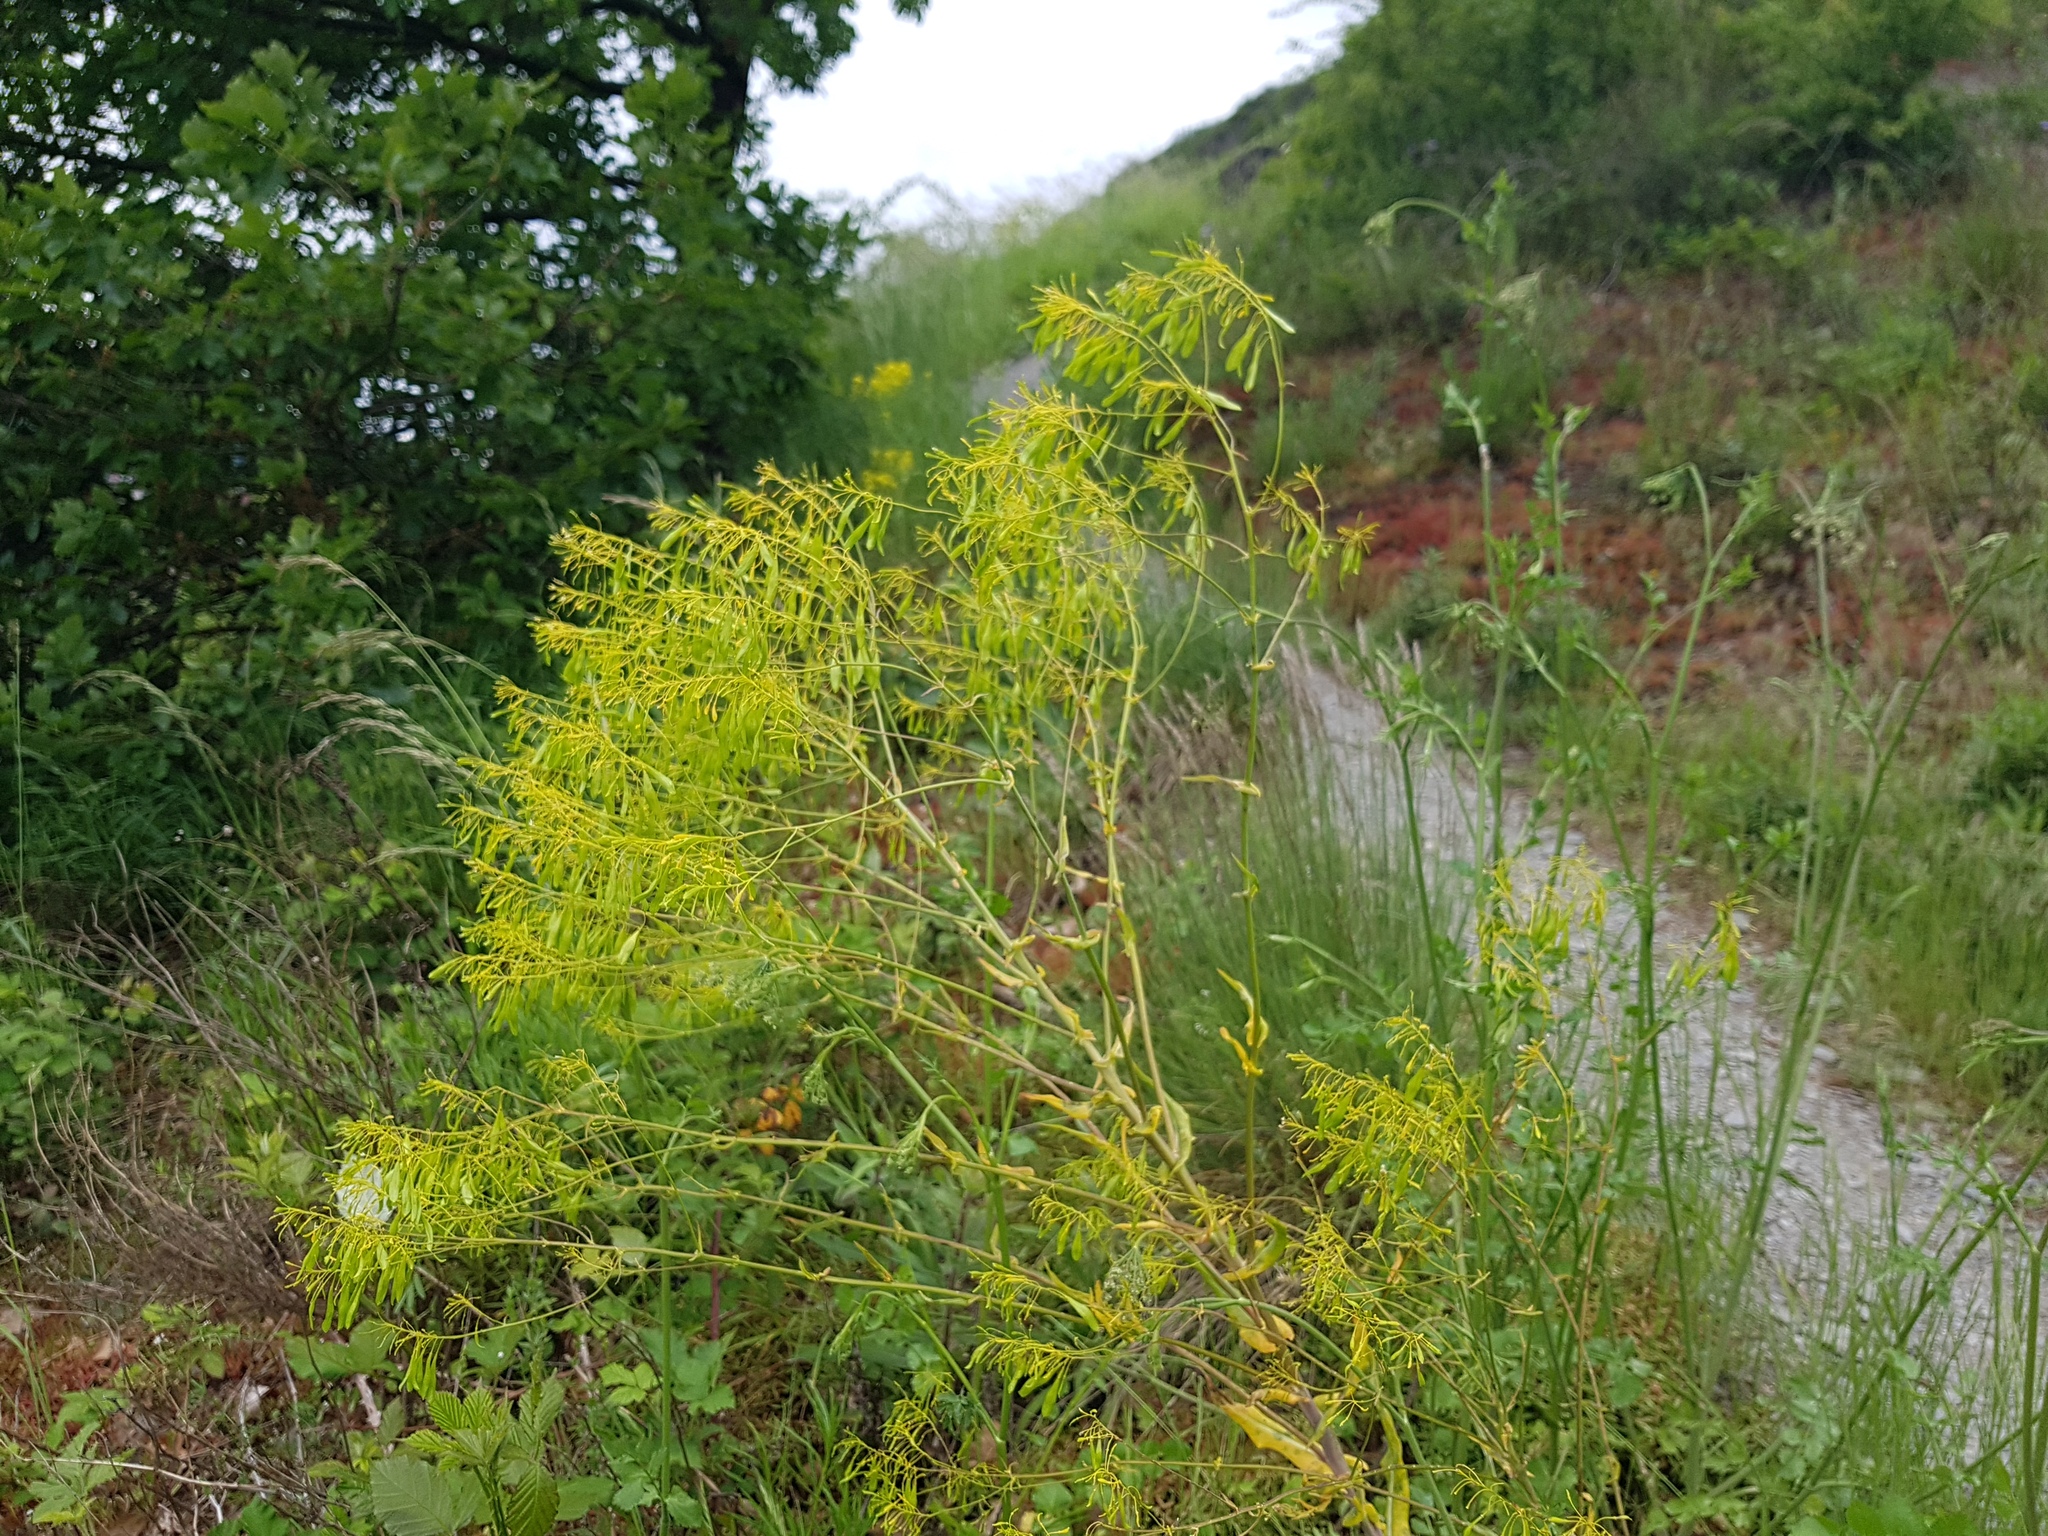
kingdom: Plantae
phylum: Tracheophyta
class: Magnoliopsida
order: Brassicales
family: Brassicaceae
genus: Isatis
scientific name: Isatis tinctoria
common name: Woad
